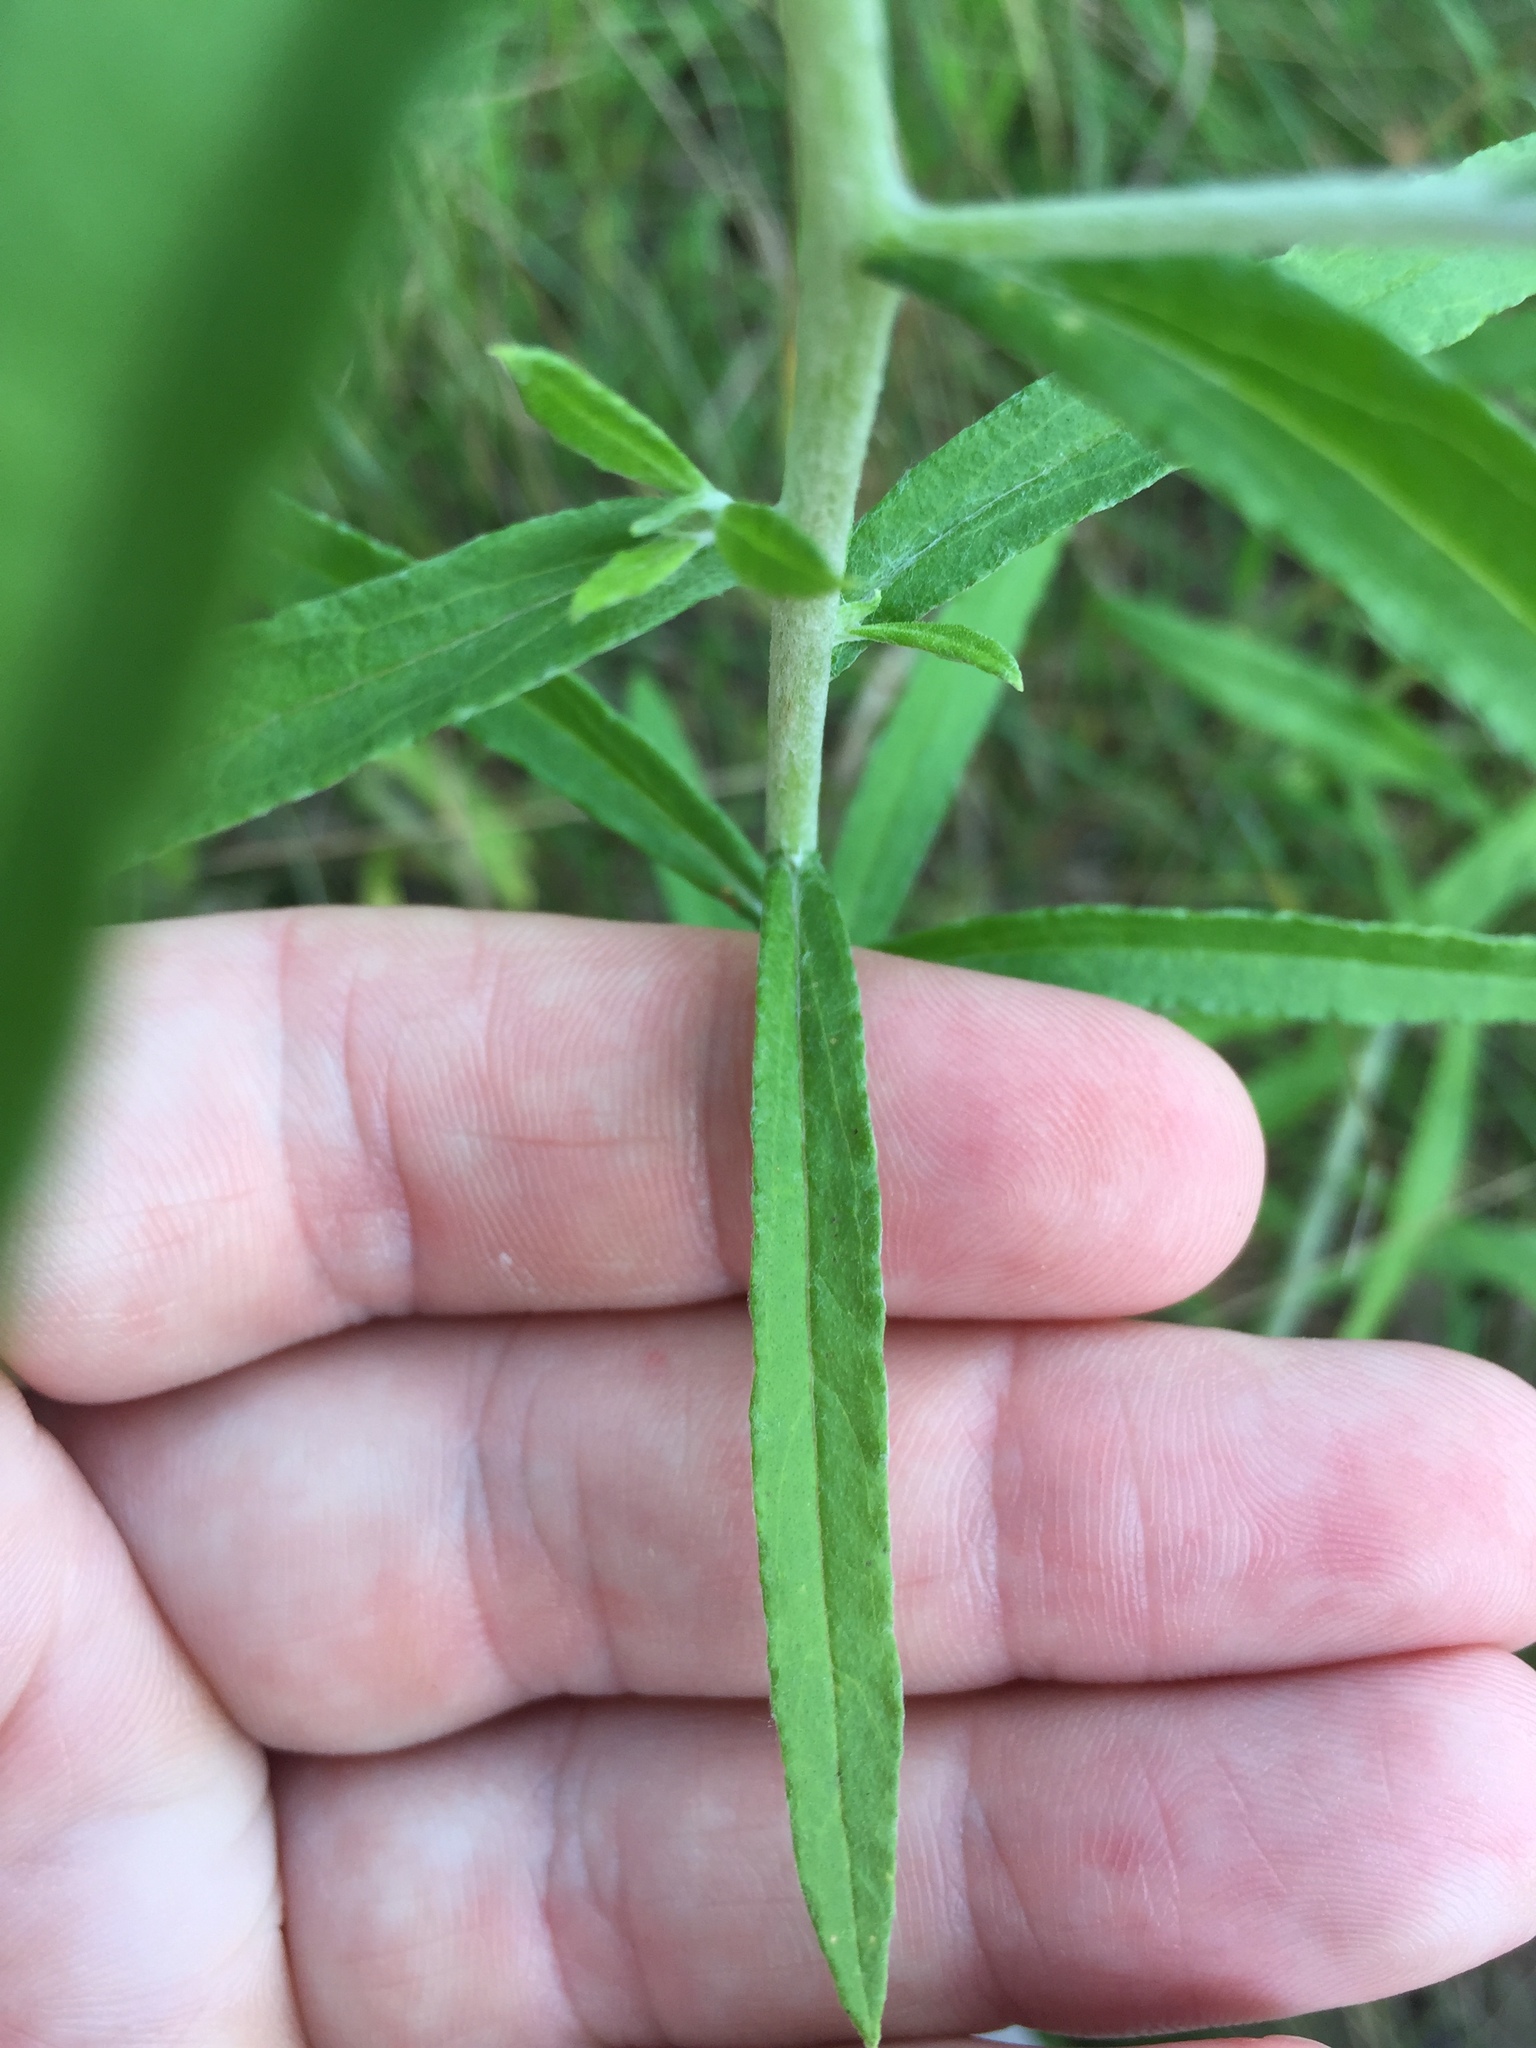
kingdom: Plantae
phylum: Tracheophyta
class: Magnoliopsida
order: Asterales
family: Asteraceae
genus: Pseudognaphalium
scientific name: Pseudognaphalium obtusifolium
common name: Eastern rabbit-tobacco
